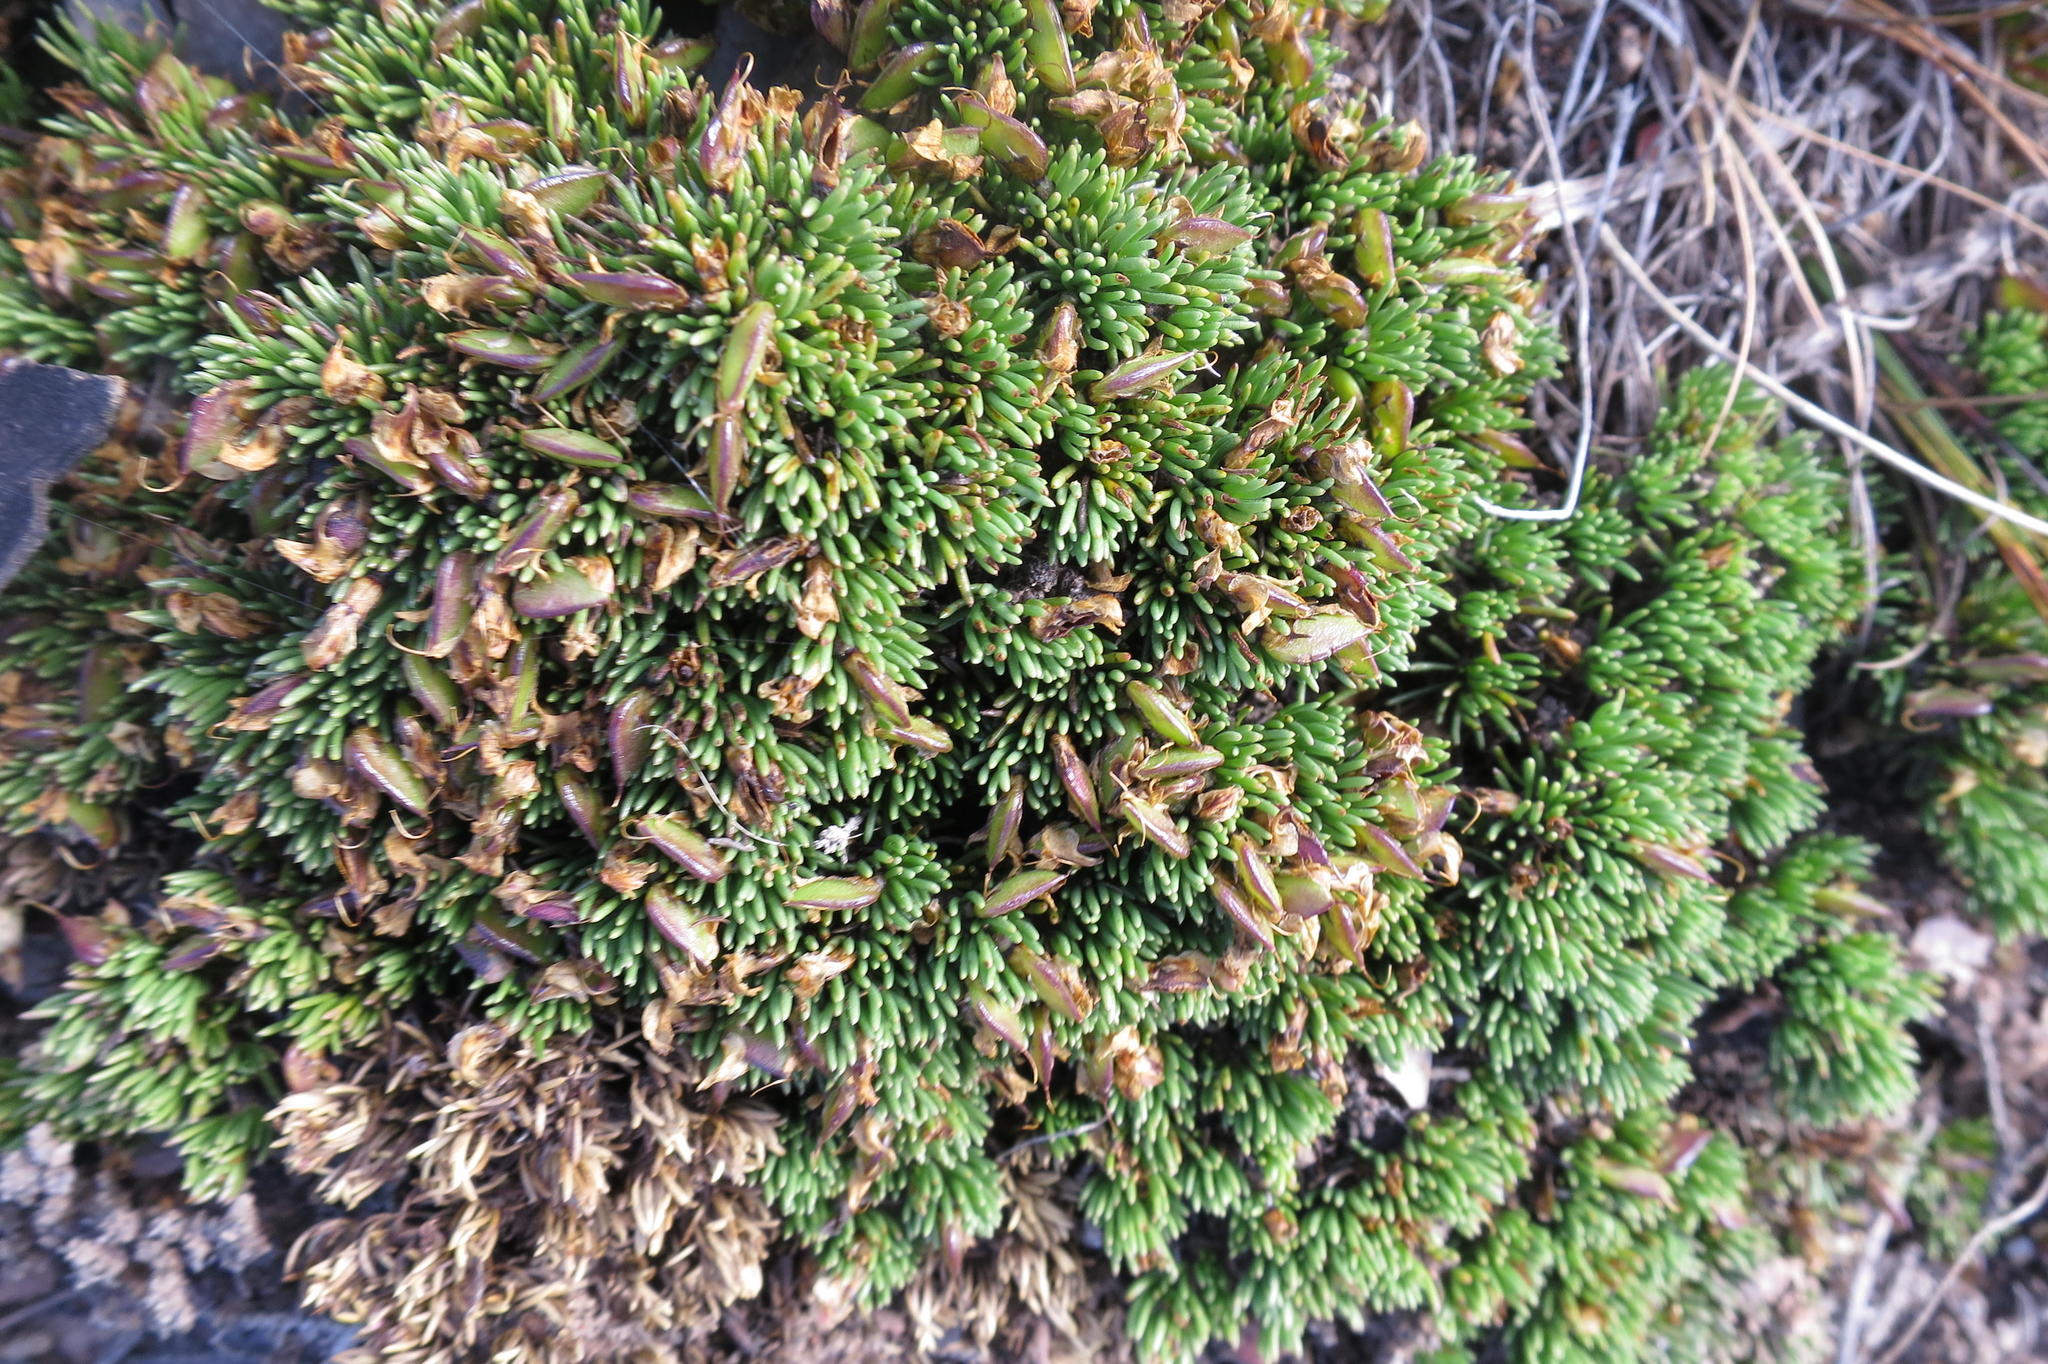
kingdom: Plantae
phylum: Tracheophyta
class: Magnoliopsida
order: Fabales
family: Fabaceae
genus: Aspalathus
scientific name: Aspalathus quartzicola
